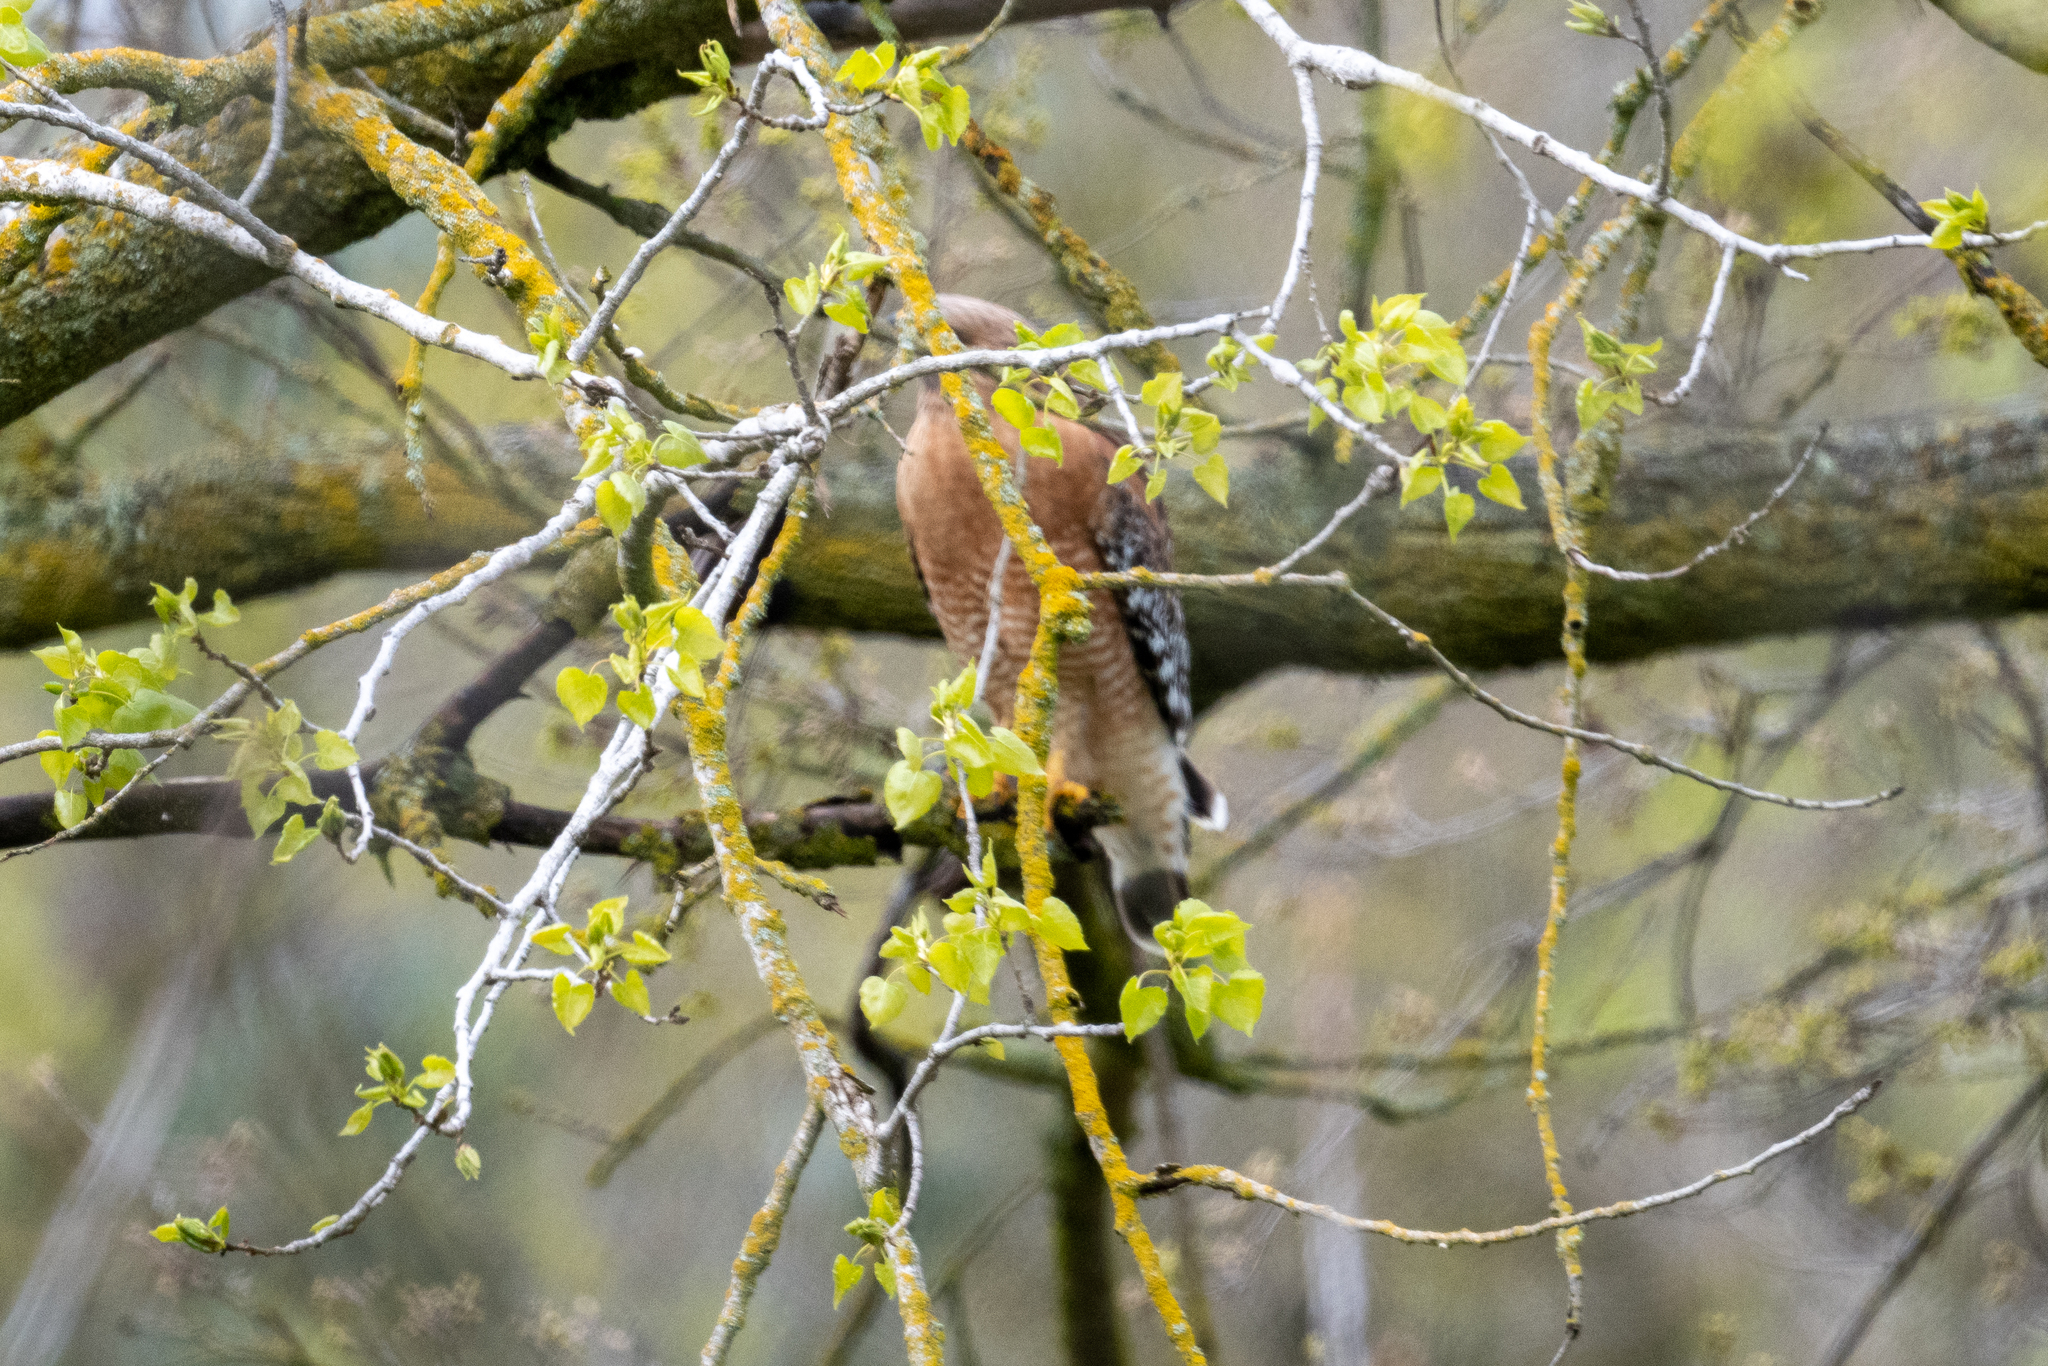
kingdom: Animalia
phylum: Chordata
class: Aves
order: Accipitriformes
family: Accipitridae
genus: Buteo
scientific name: Buteo lineatus
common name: Red-shouldered hawk
